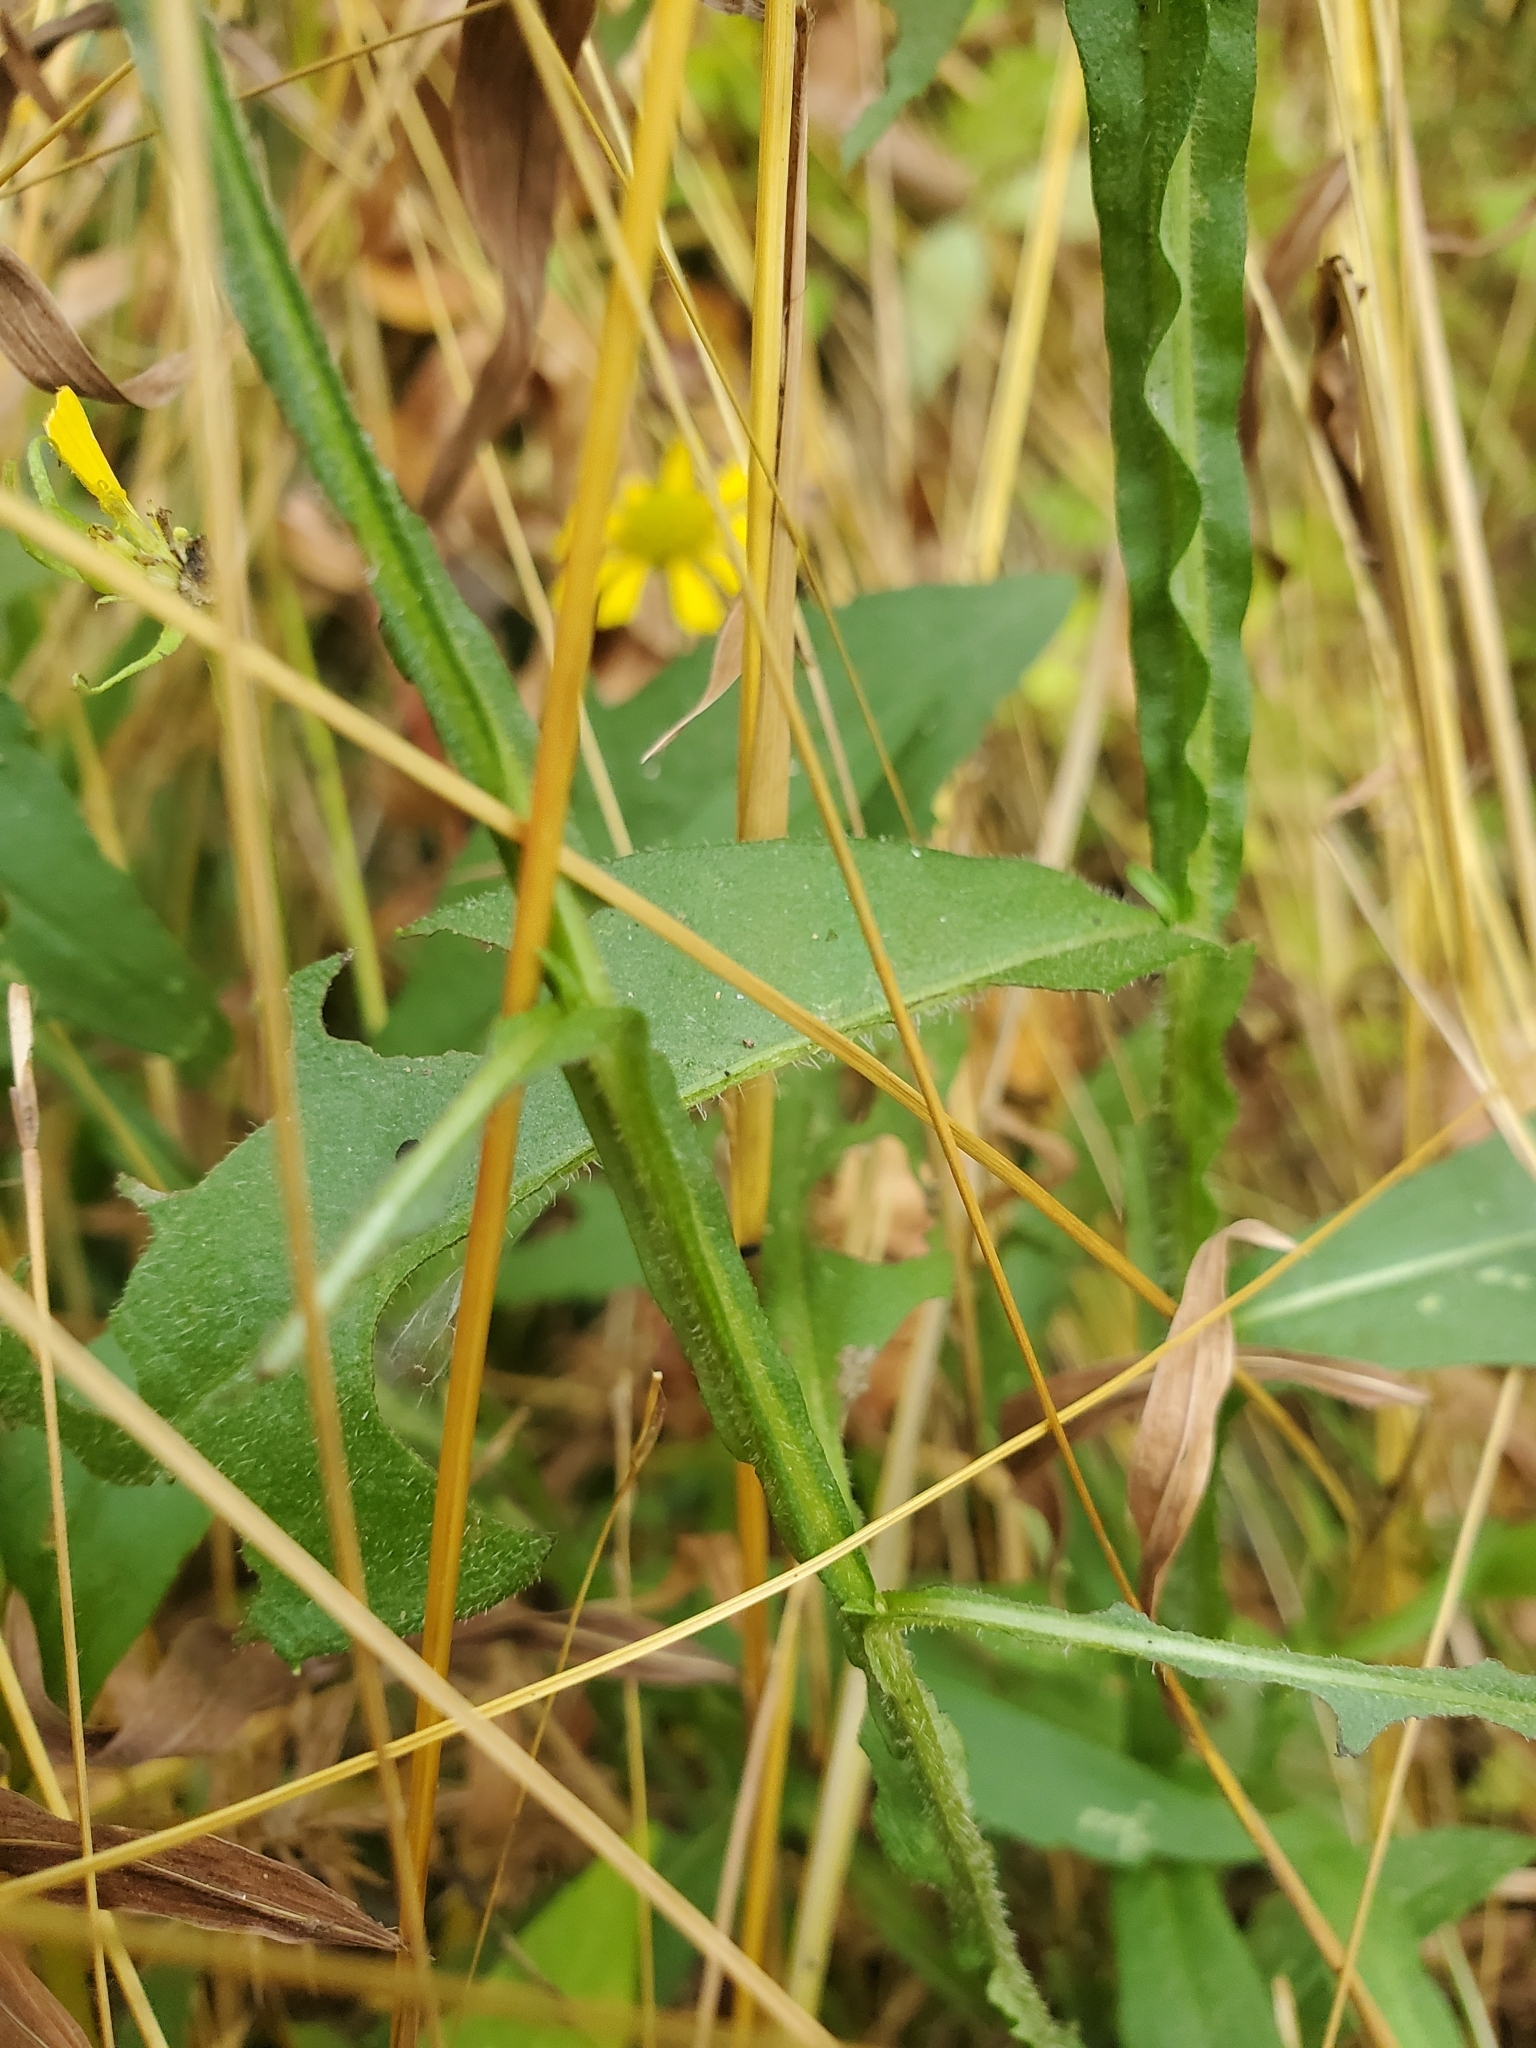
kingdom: Plantae
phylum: Tracheophyta
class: Magnoliopsida
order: Asterales
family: Asteraceae
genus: Helenium
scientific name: Helenium autumnale
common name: Sneezeweed
